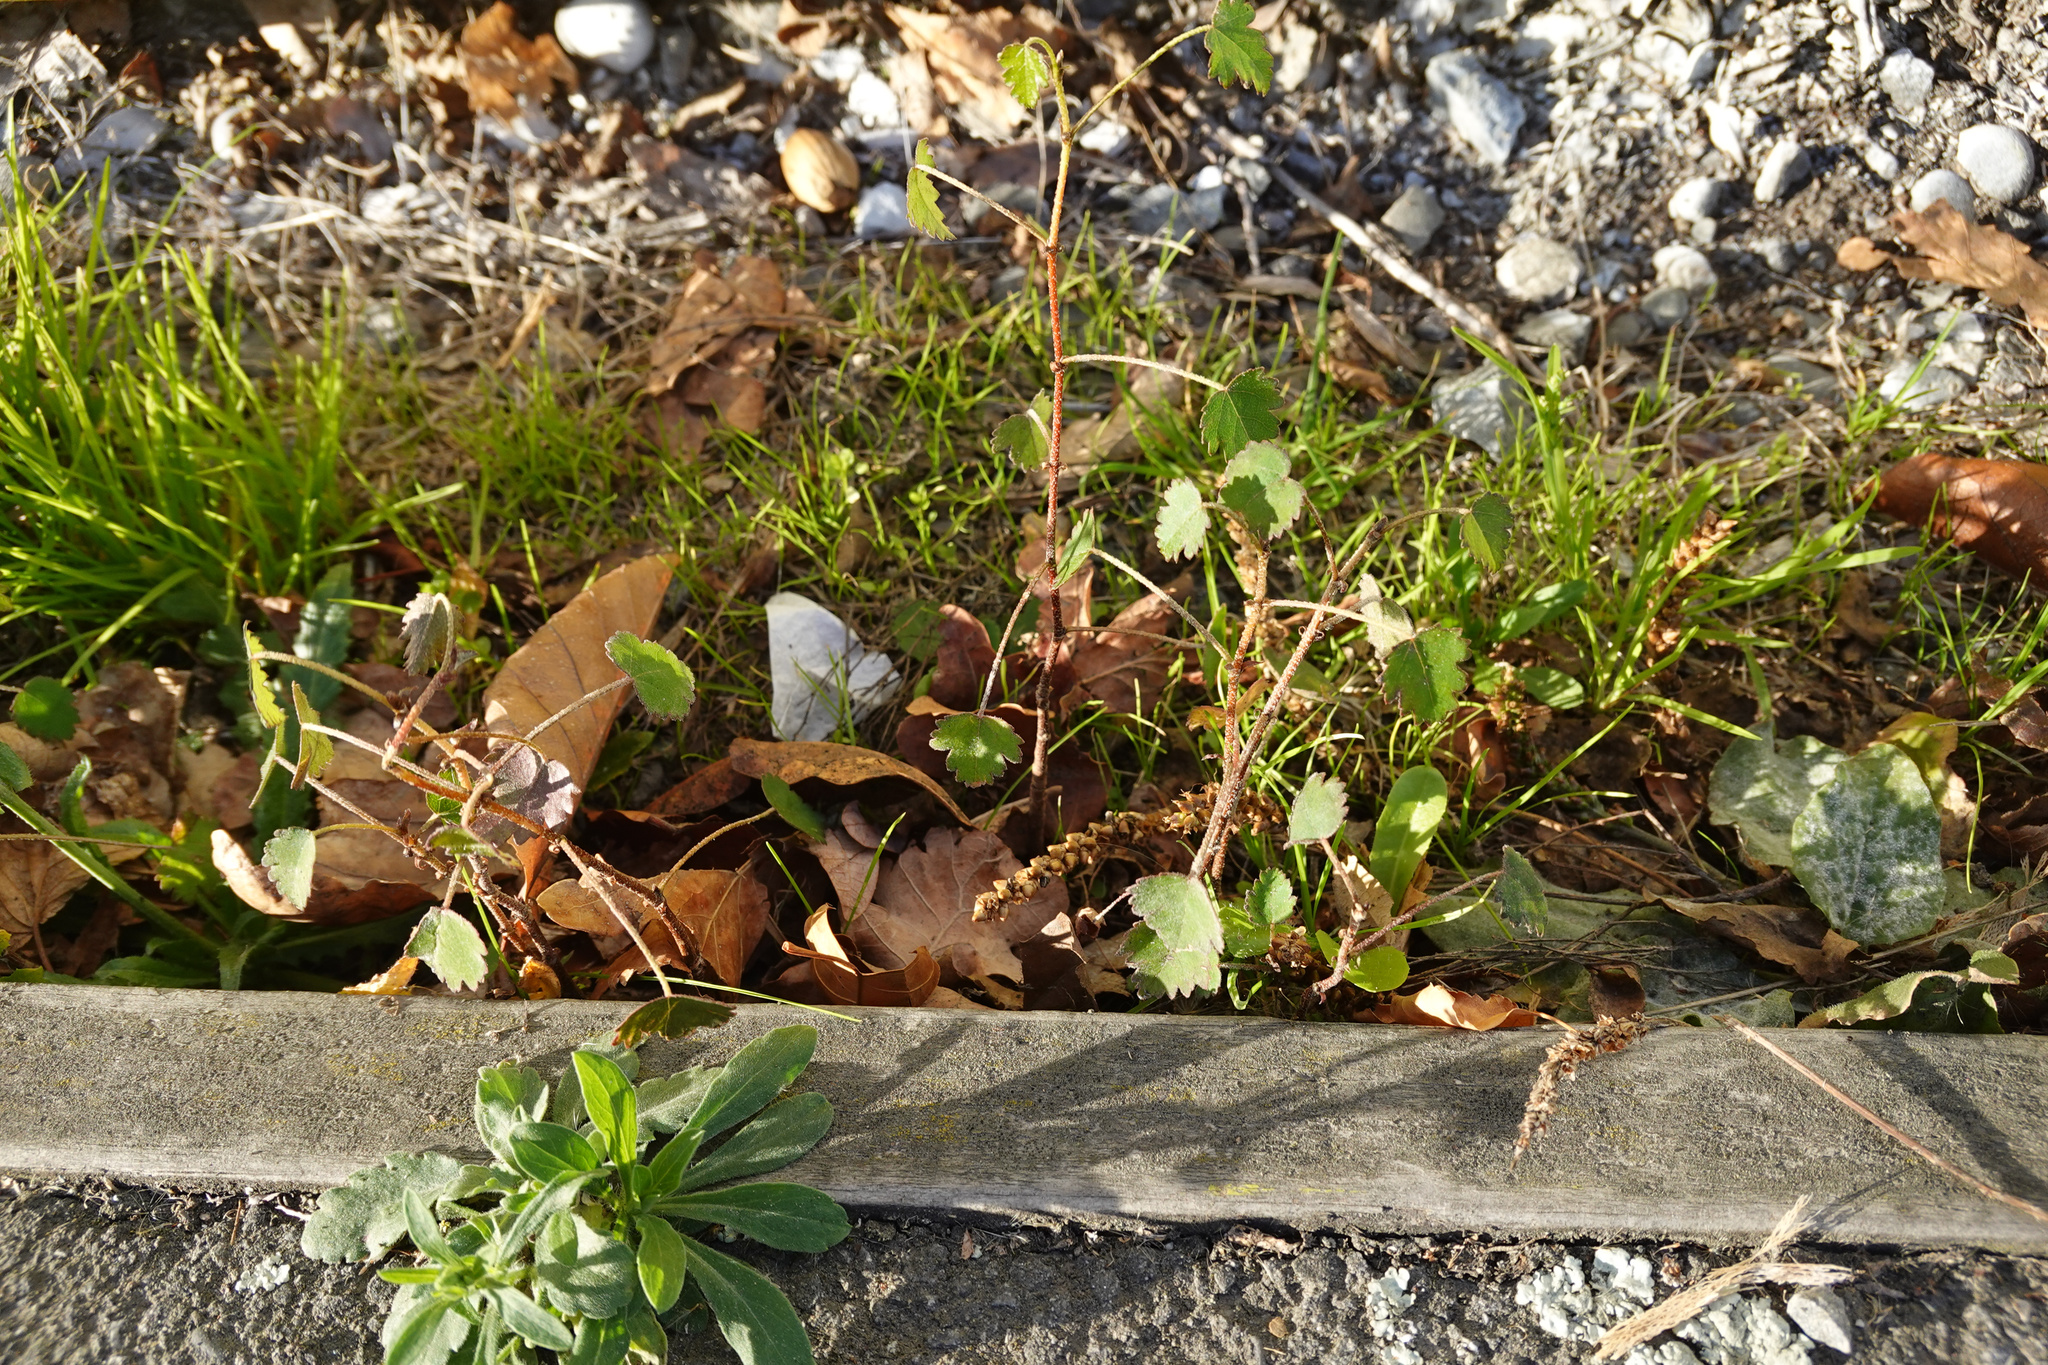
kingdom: Plantae
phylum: Tracheophyta
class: Magnoliopsida
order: Malvales
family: Malvaceae
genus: Plagianthus
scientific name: Plagianthus regius
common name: Manatu
